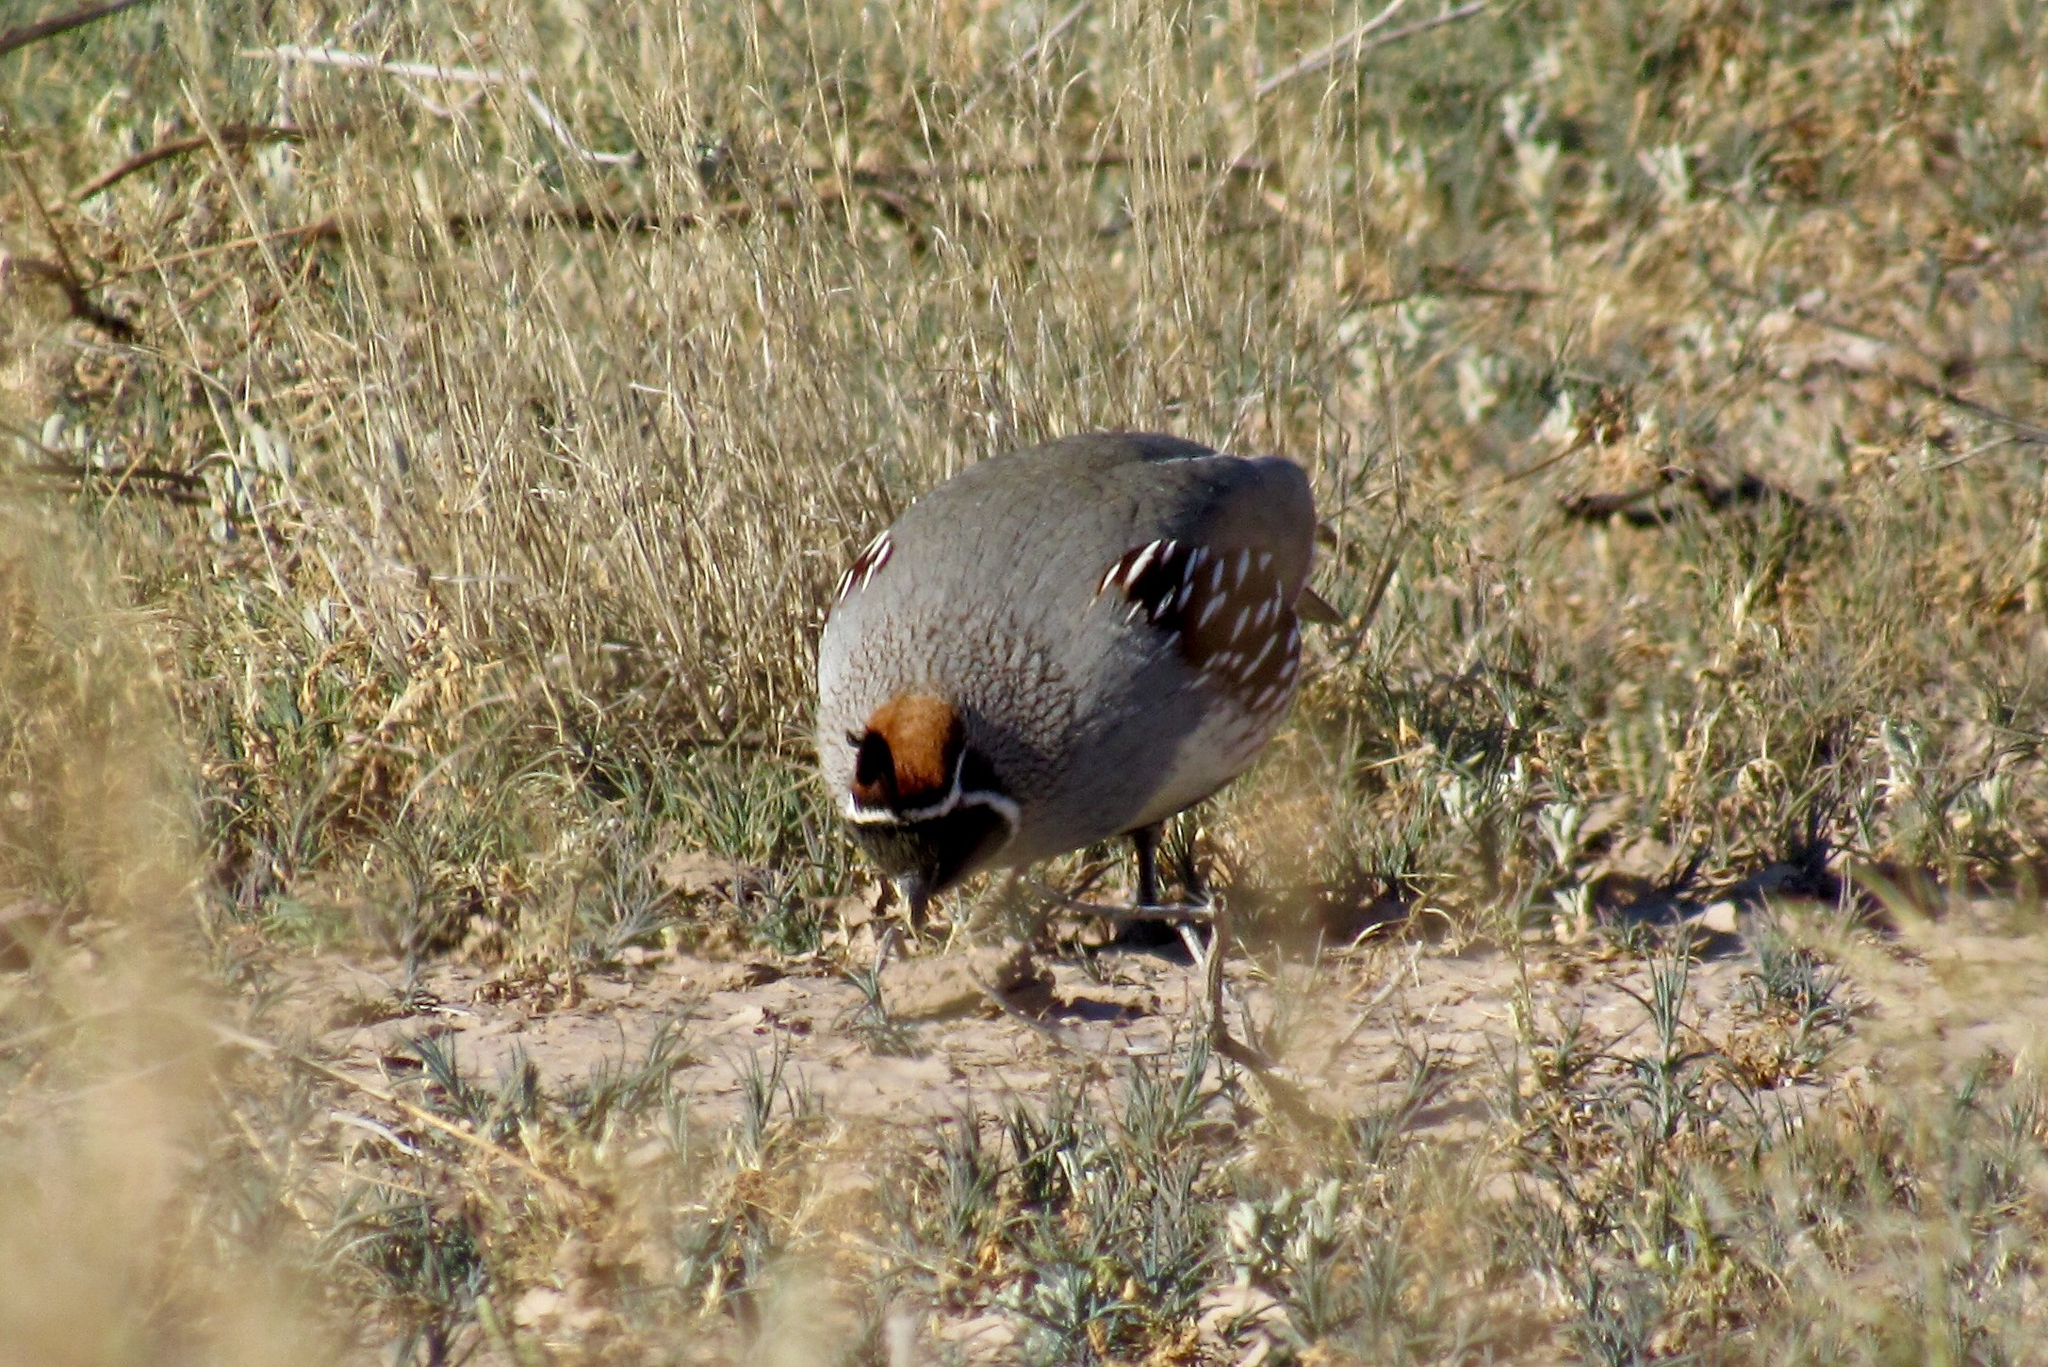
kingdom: Animalia
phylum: Chordata
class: Aves
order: Galliformes
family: Odontophoridae
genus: Callipepla
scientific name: Callipepla gambelii
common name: Gambel's quail
